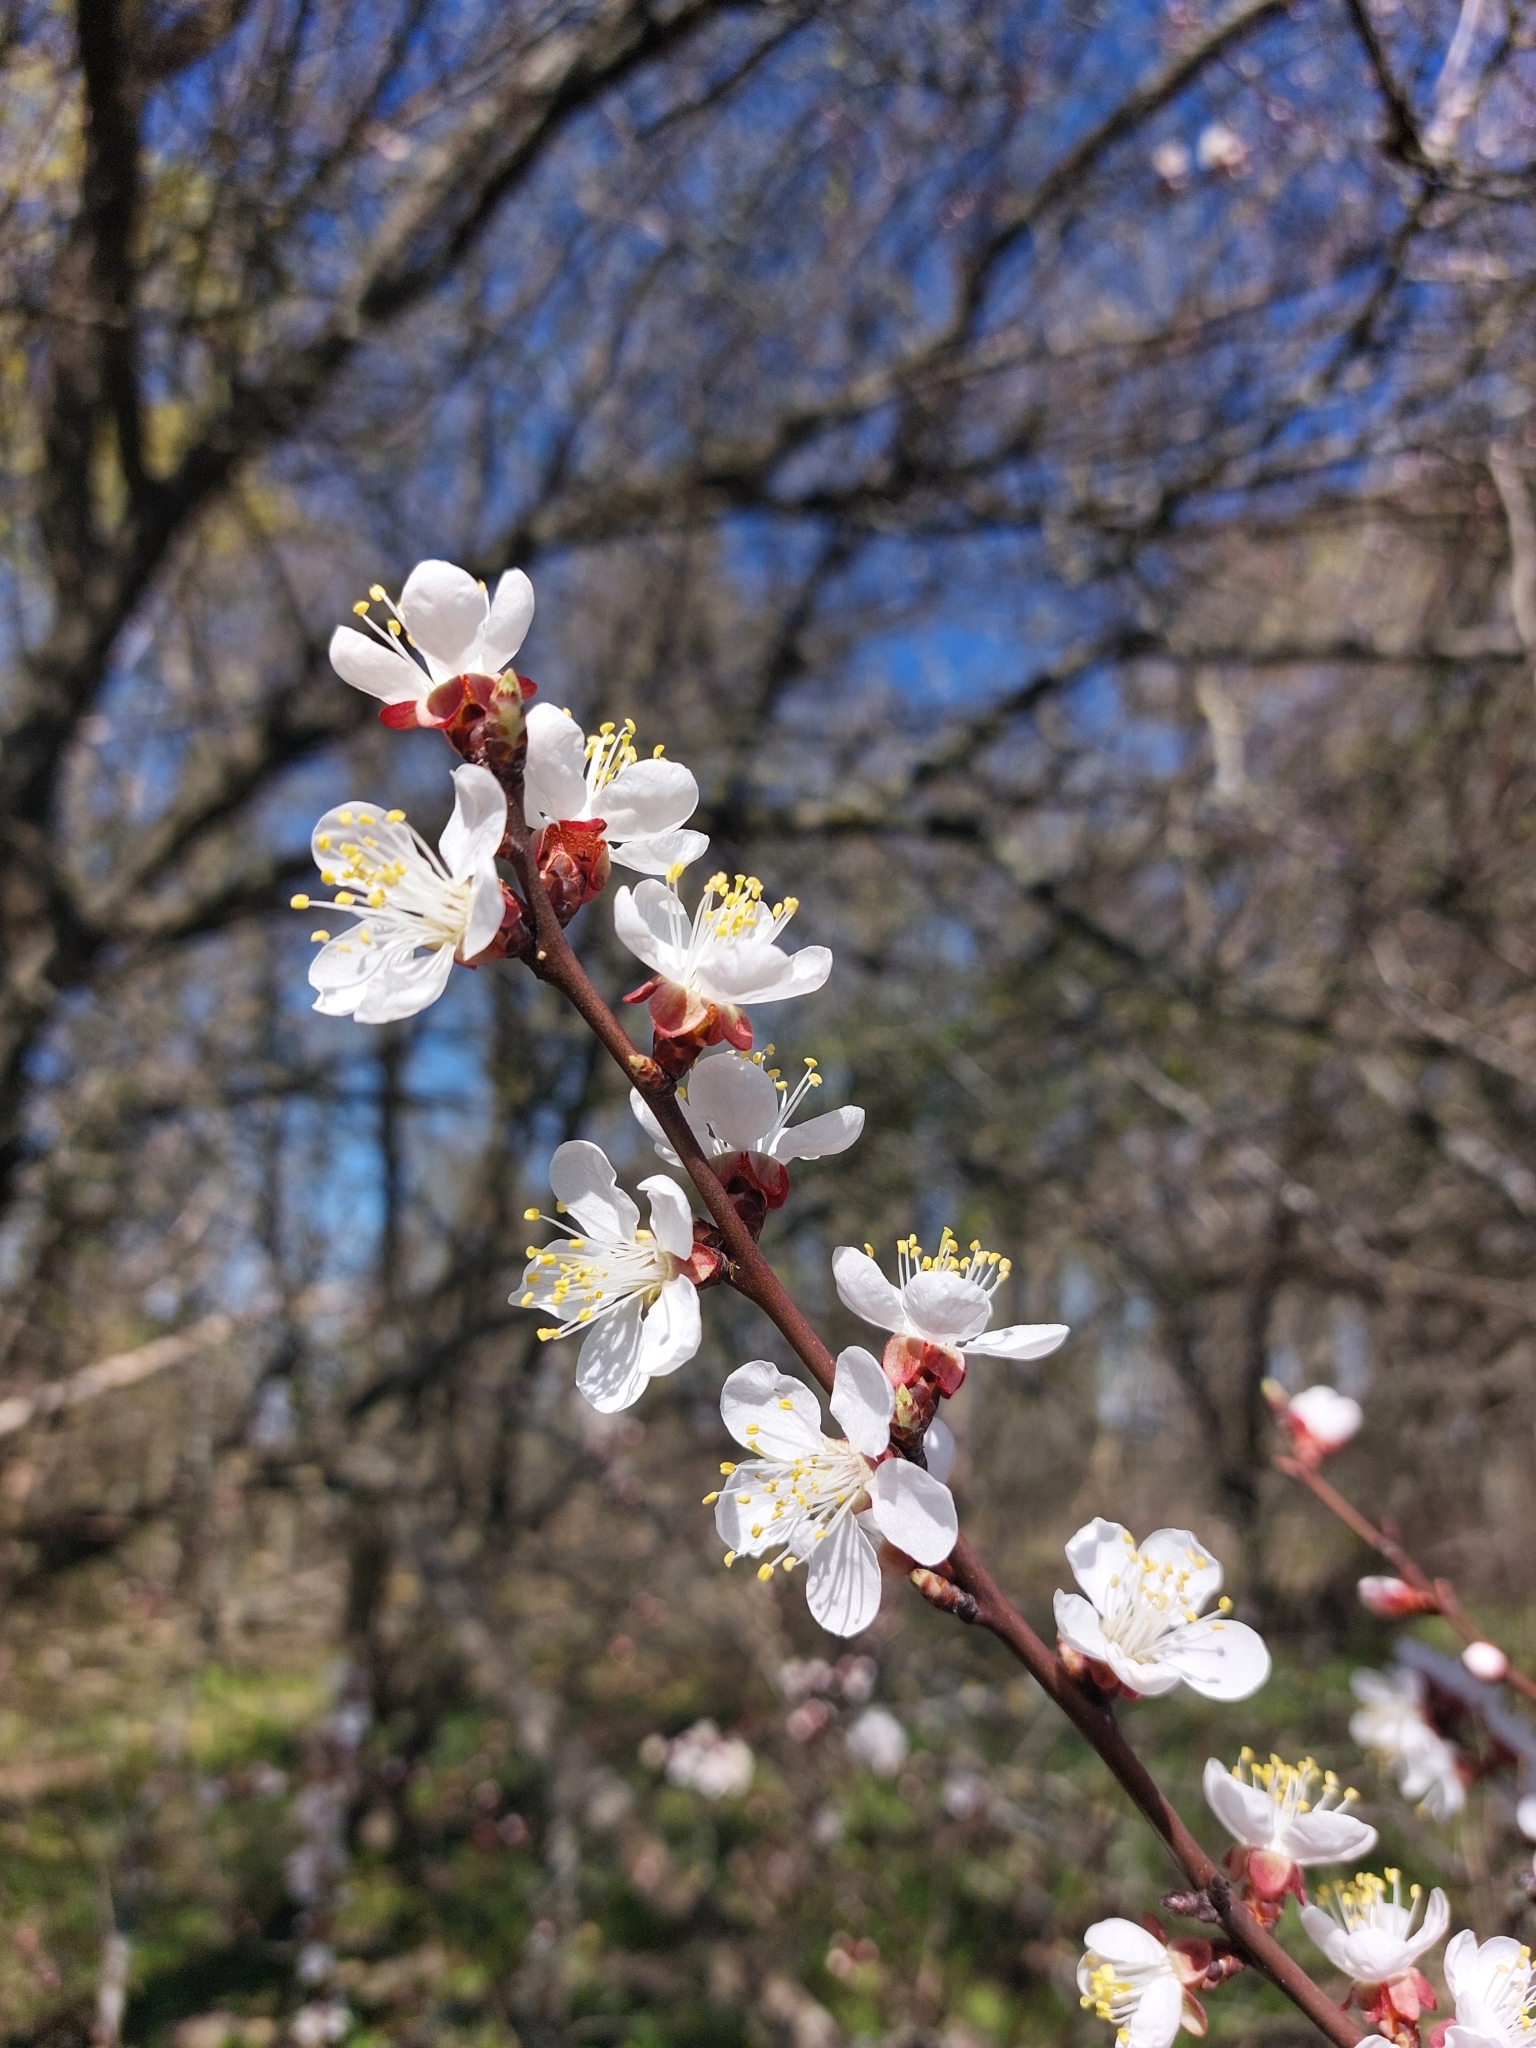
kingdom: Plantae
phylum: Tracheophyta
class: Magnoliopsida
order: Rosales
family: Rosaceae
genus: Prunus
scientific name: Prunus armeniaca
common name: Apricot
